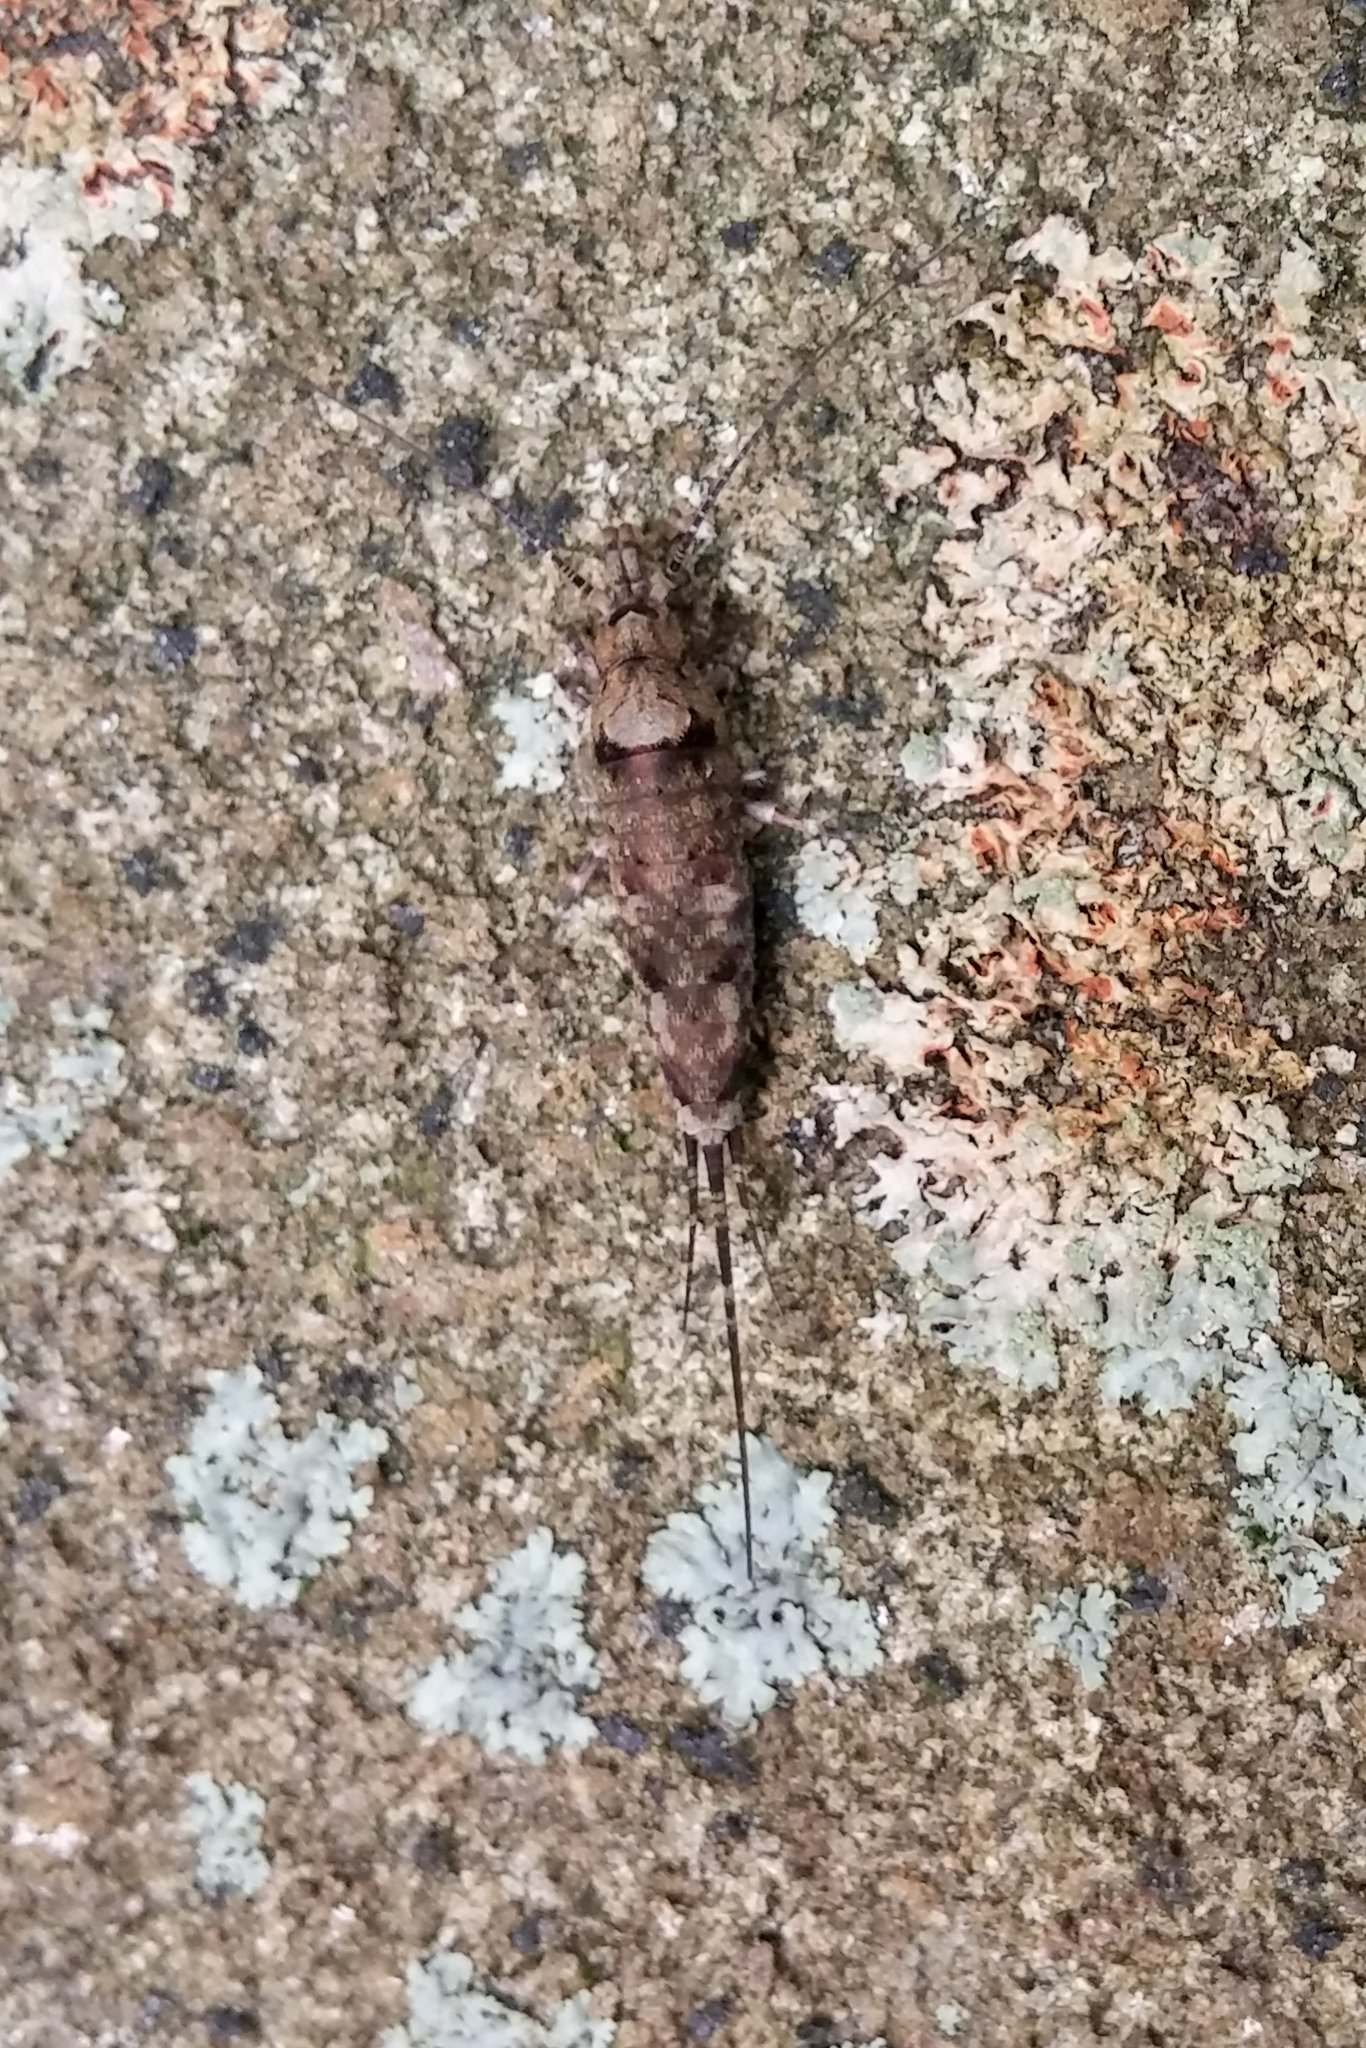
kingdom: Animalia
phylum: Arthropoda
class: Insecta
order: Archaeognatha
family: Machilidae
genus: Trigoniophthalmus
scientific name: Trigoniophthalmus alternatus
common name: Jumping bristletail
